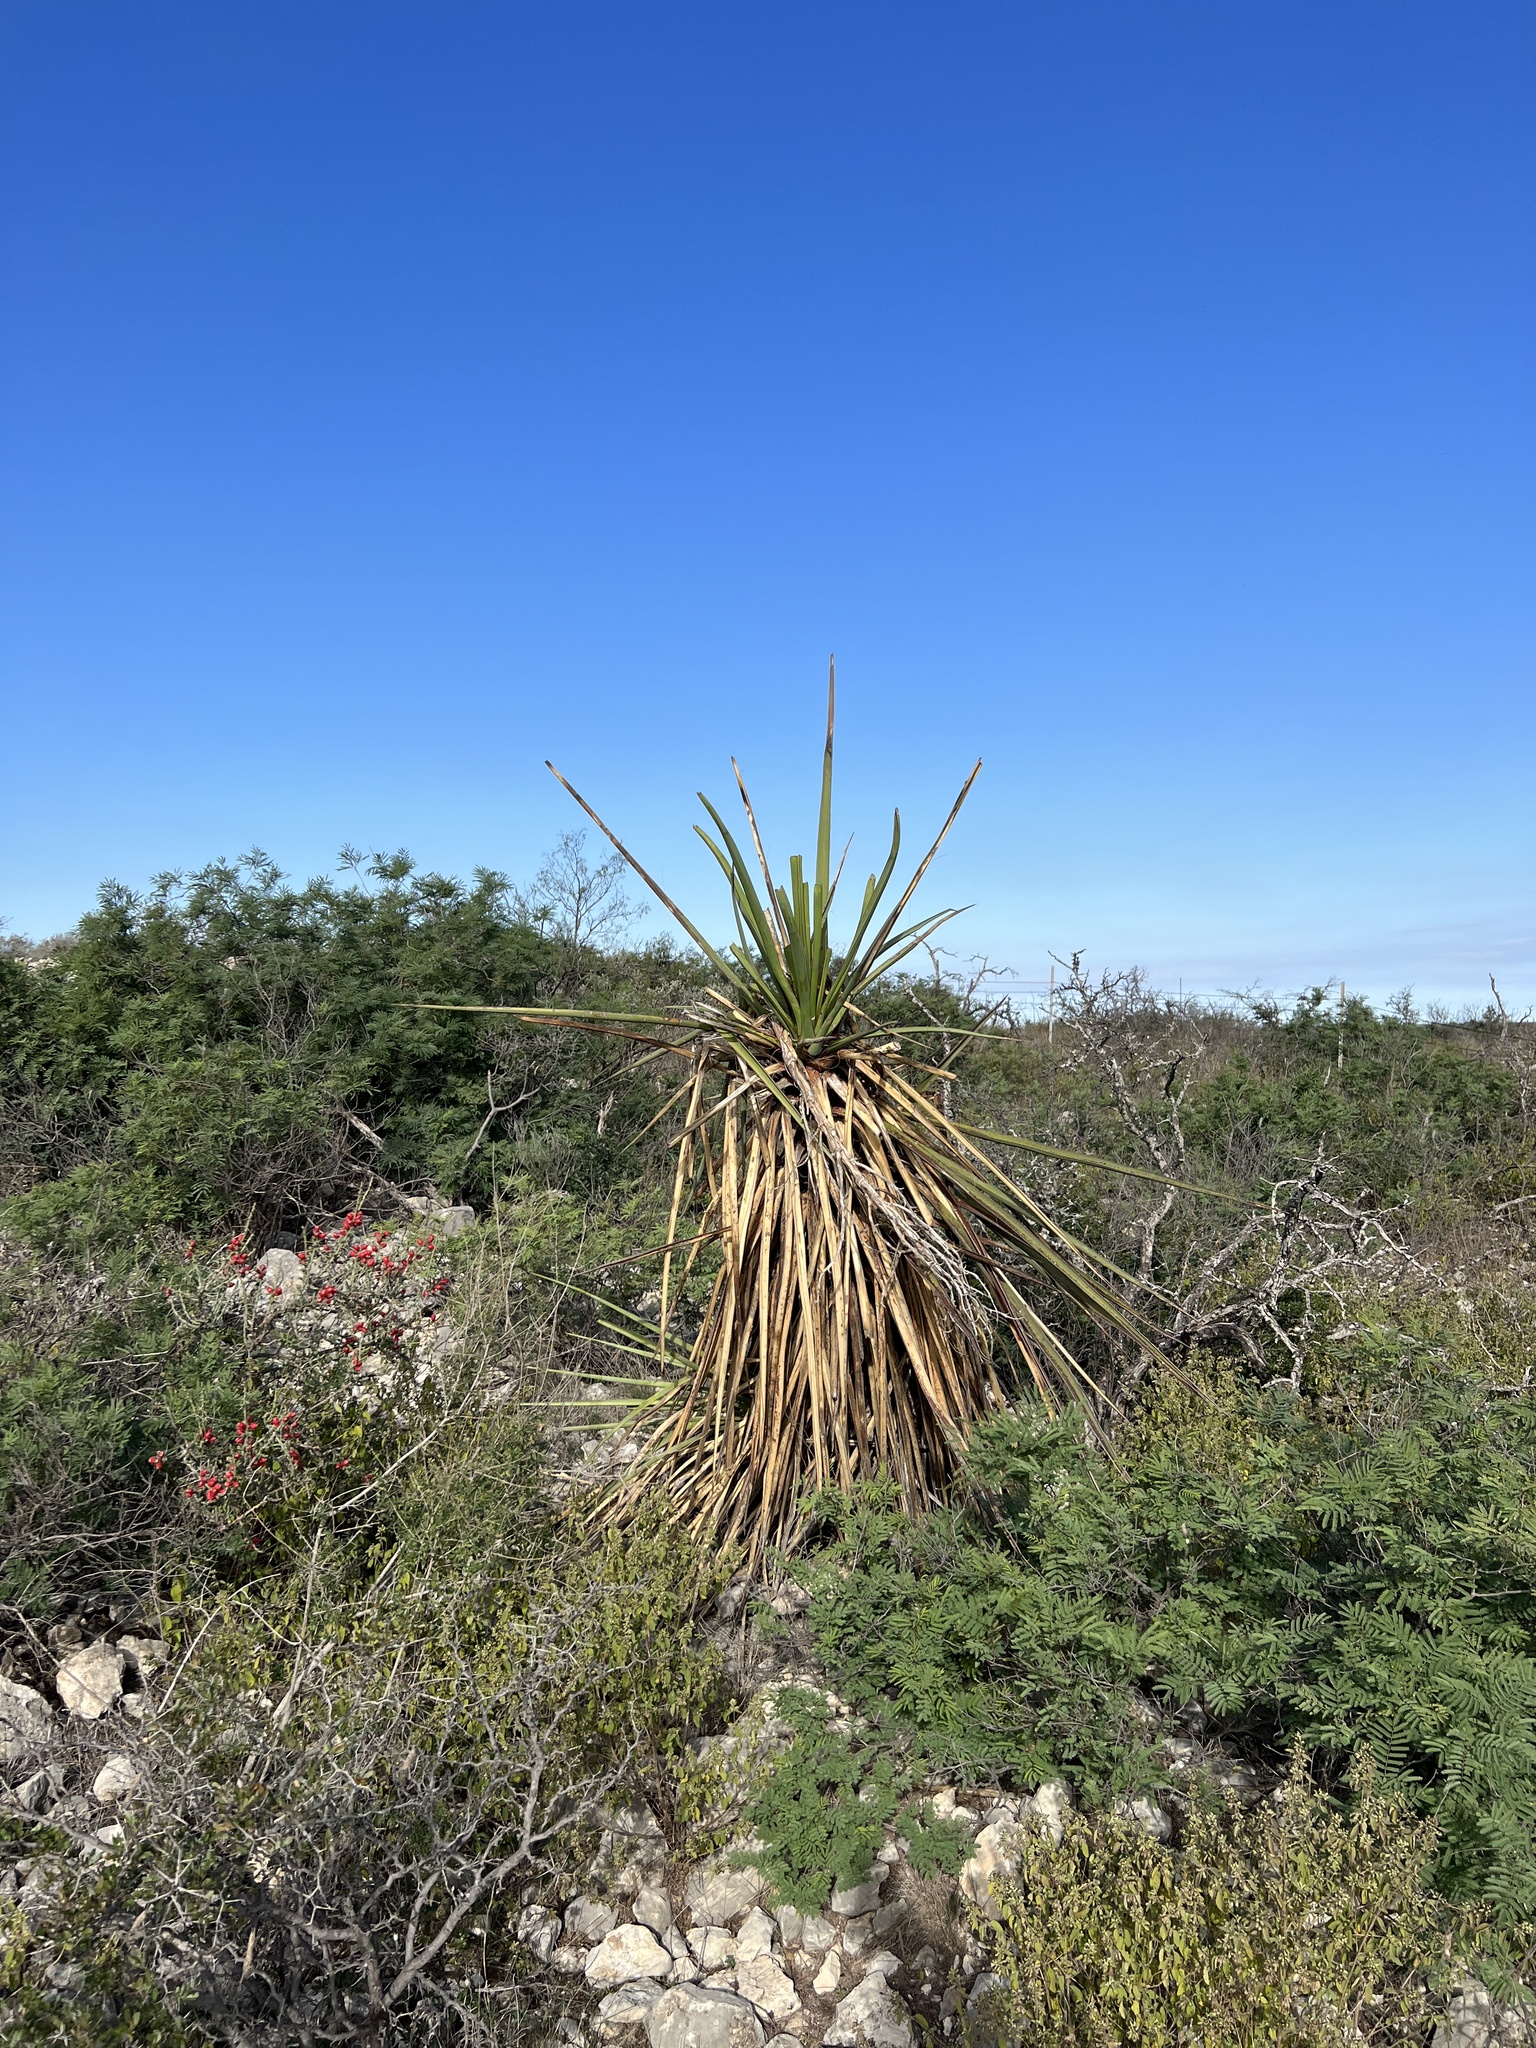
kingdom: Plantae
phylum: Tracheophyta
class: Liliopsida
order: Asparagales
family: Asparagaceae
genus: Yucca
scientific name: Yucca treculiana
